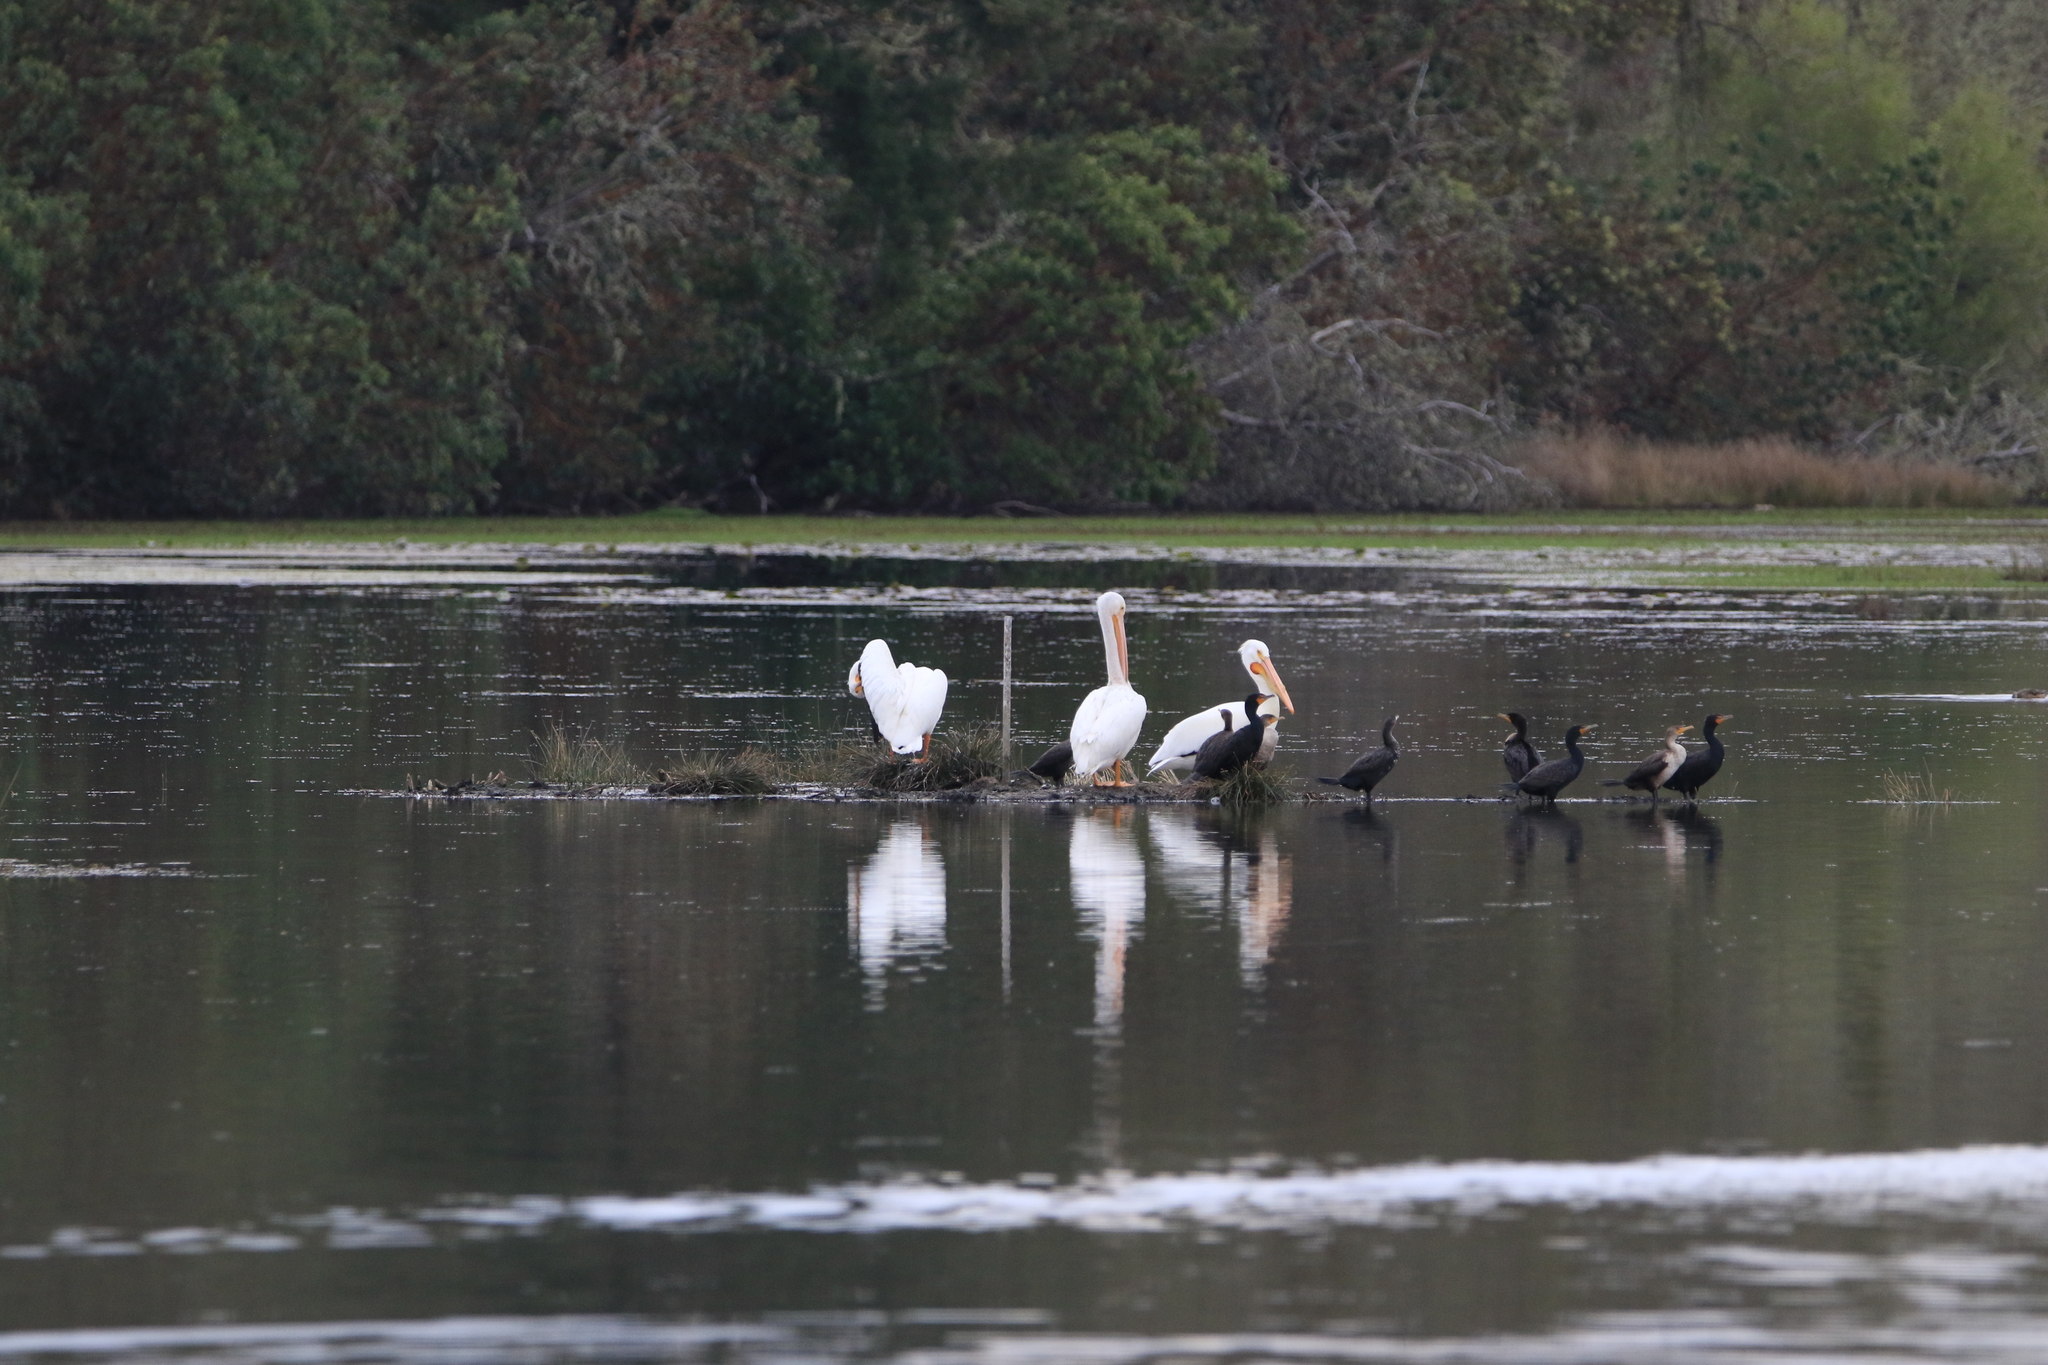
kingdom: Animalia
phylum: Chordata
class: Aves
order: Pelecaniformes
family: Pelecanidae
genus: Pelecanus
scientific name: Pelecanus erythrorhynchos
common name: American white pelican
